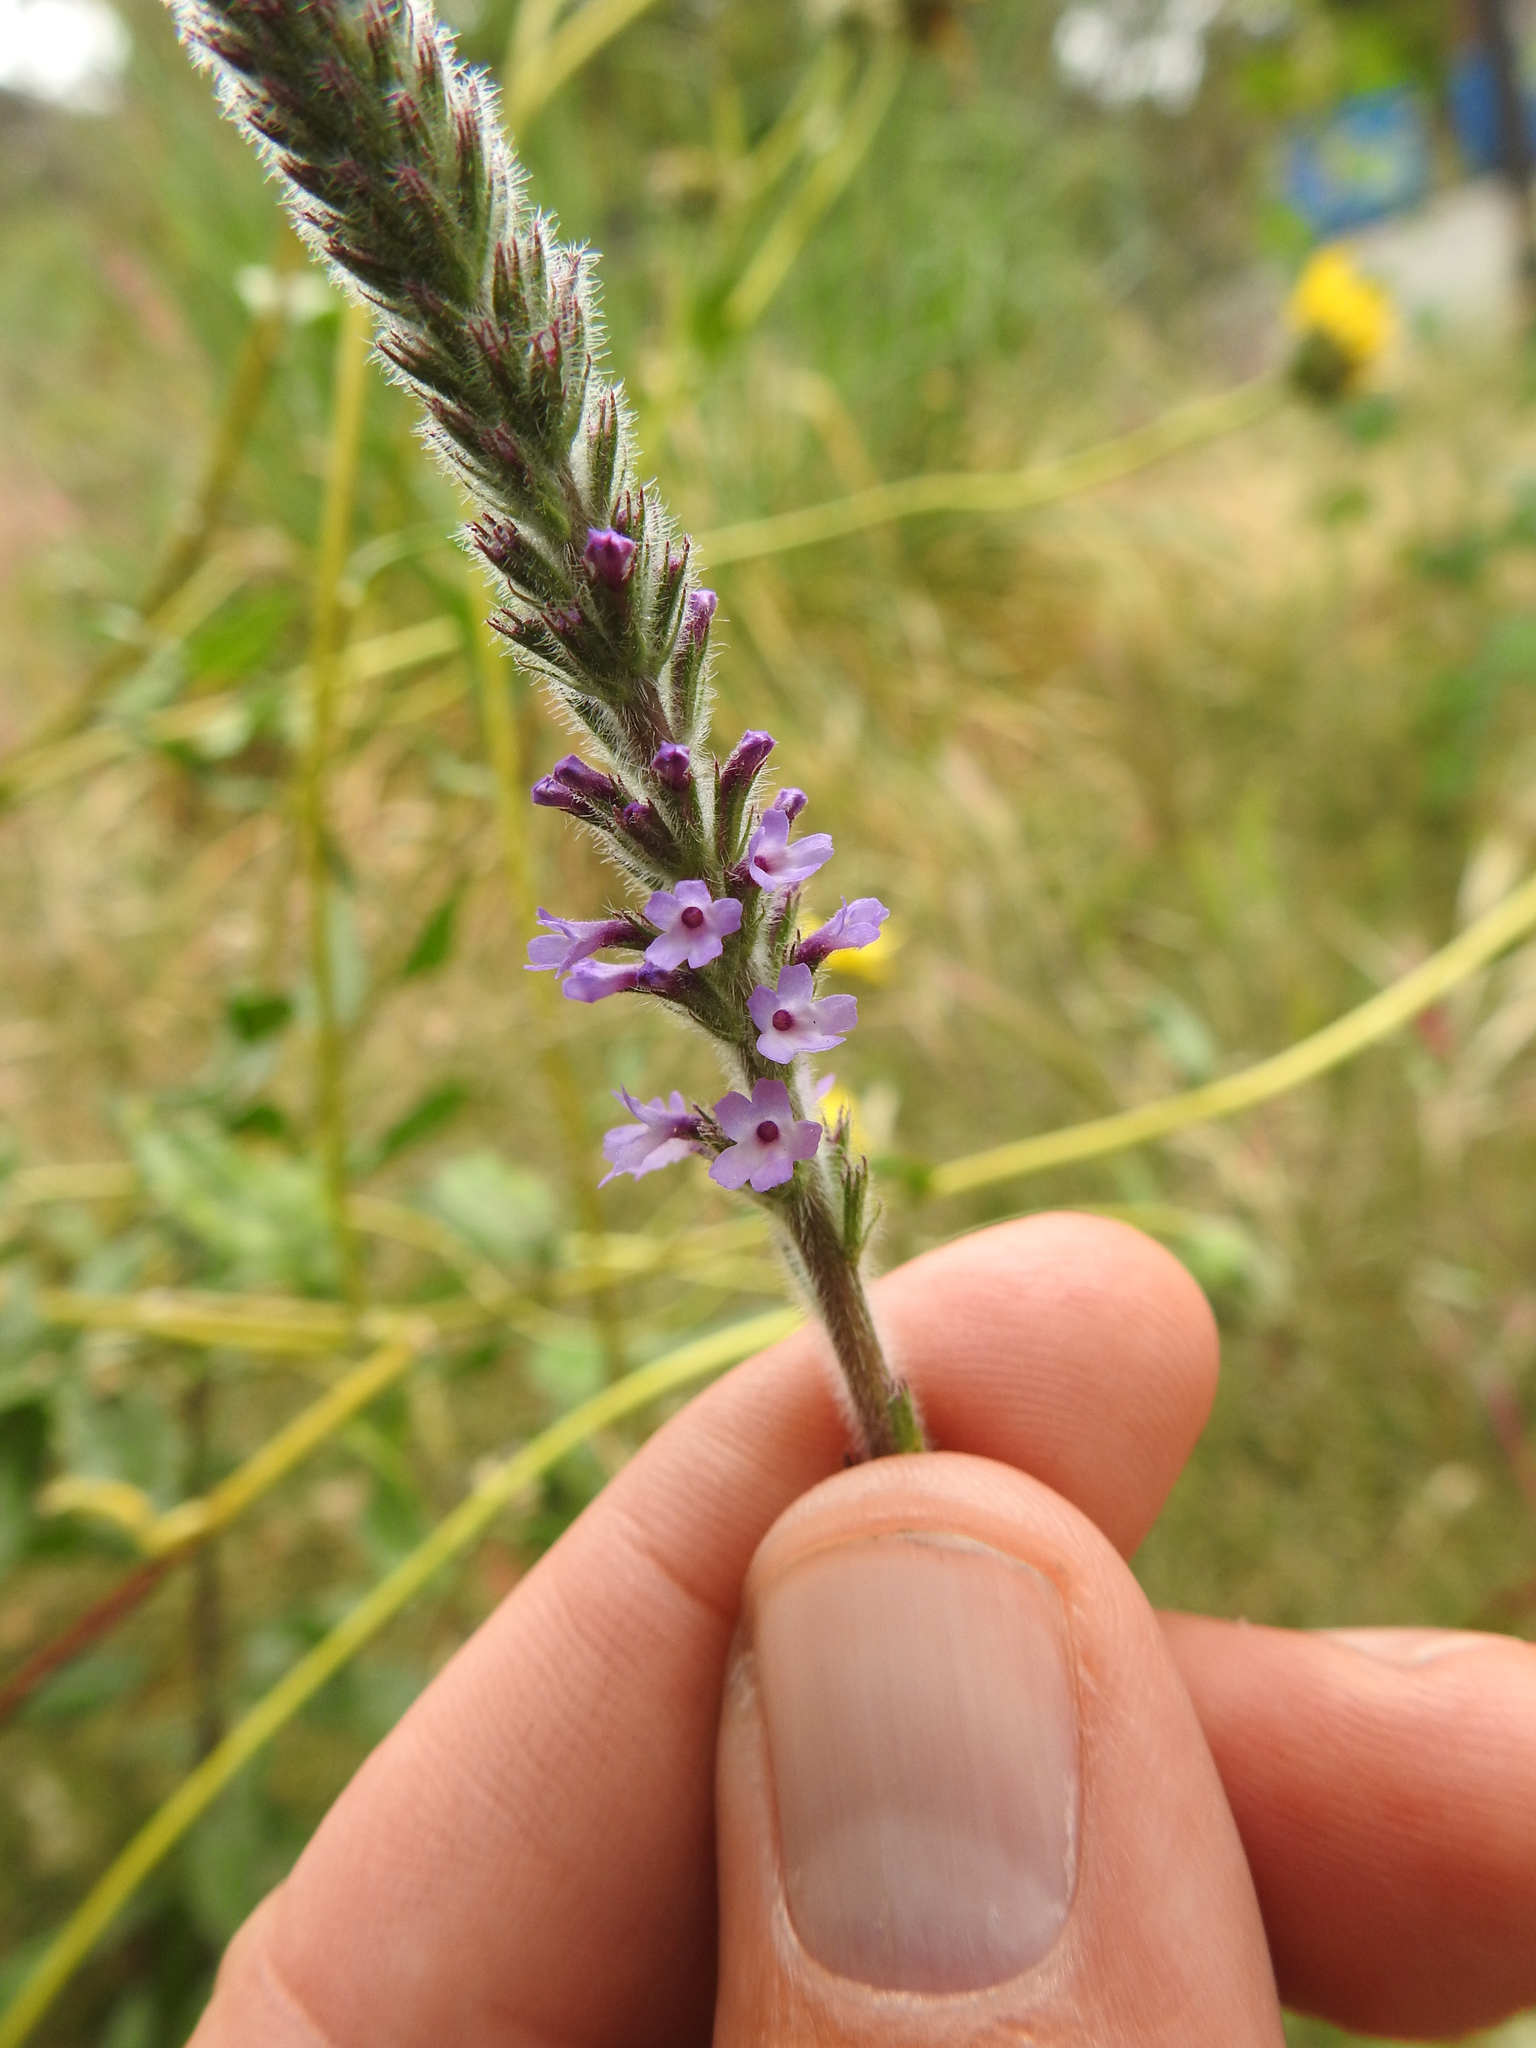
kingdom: Plantae
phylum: Tracheophyta
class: Magnoliopsida
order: Lamiales
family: Verbenaceae
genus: Verbena
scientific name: Verbena lasiostachys
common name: Vervain
